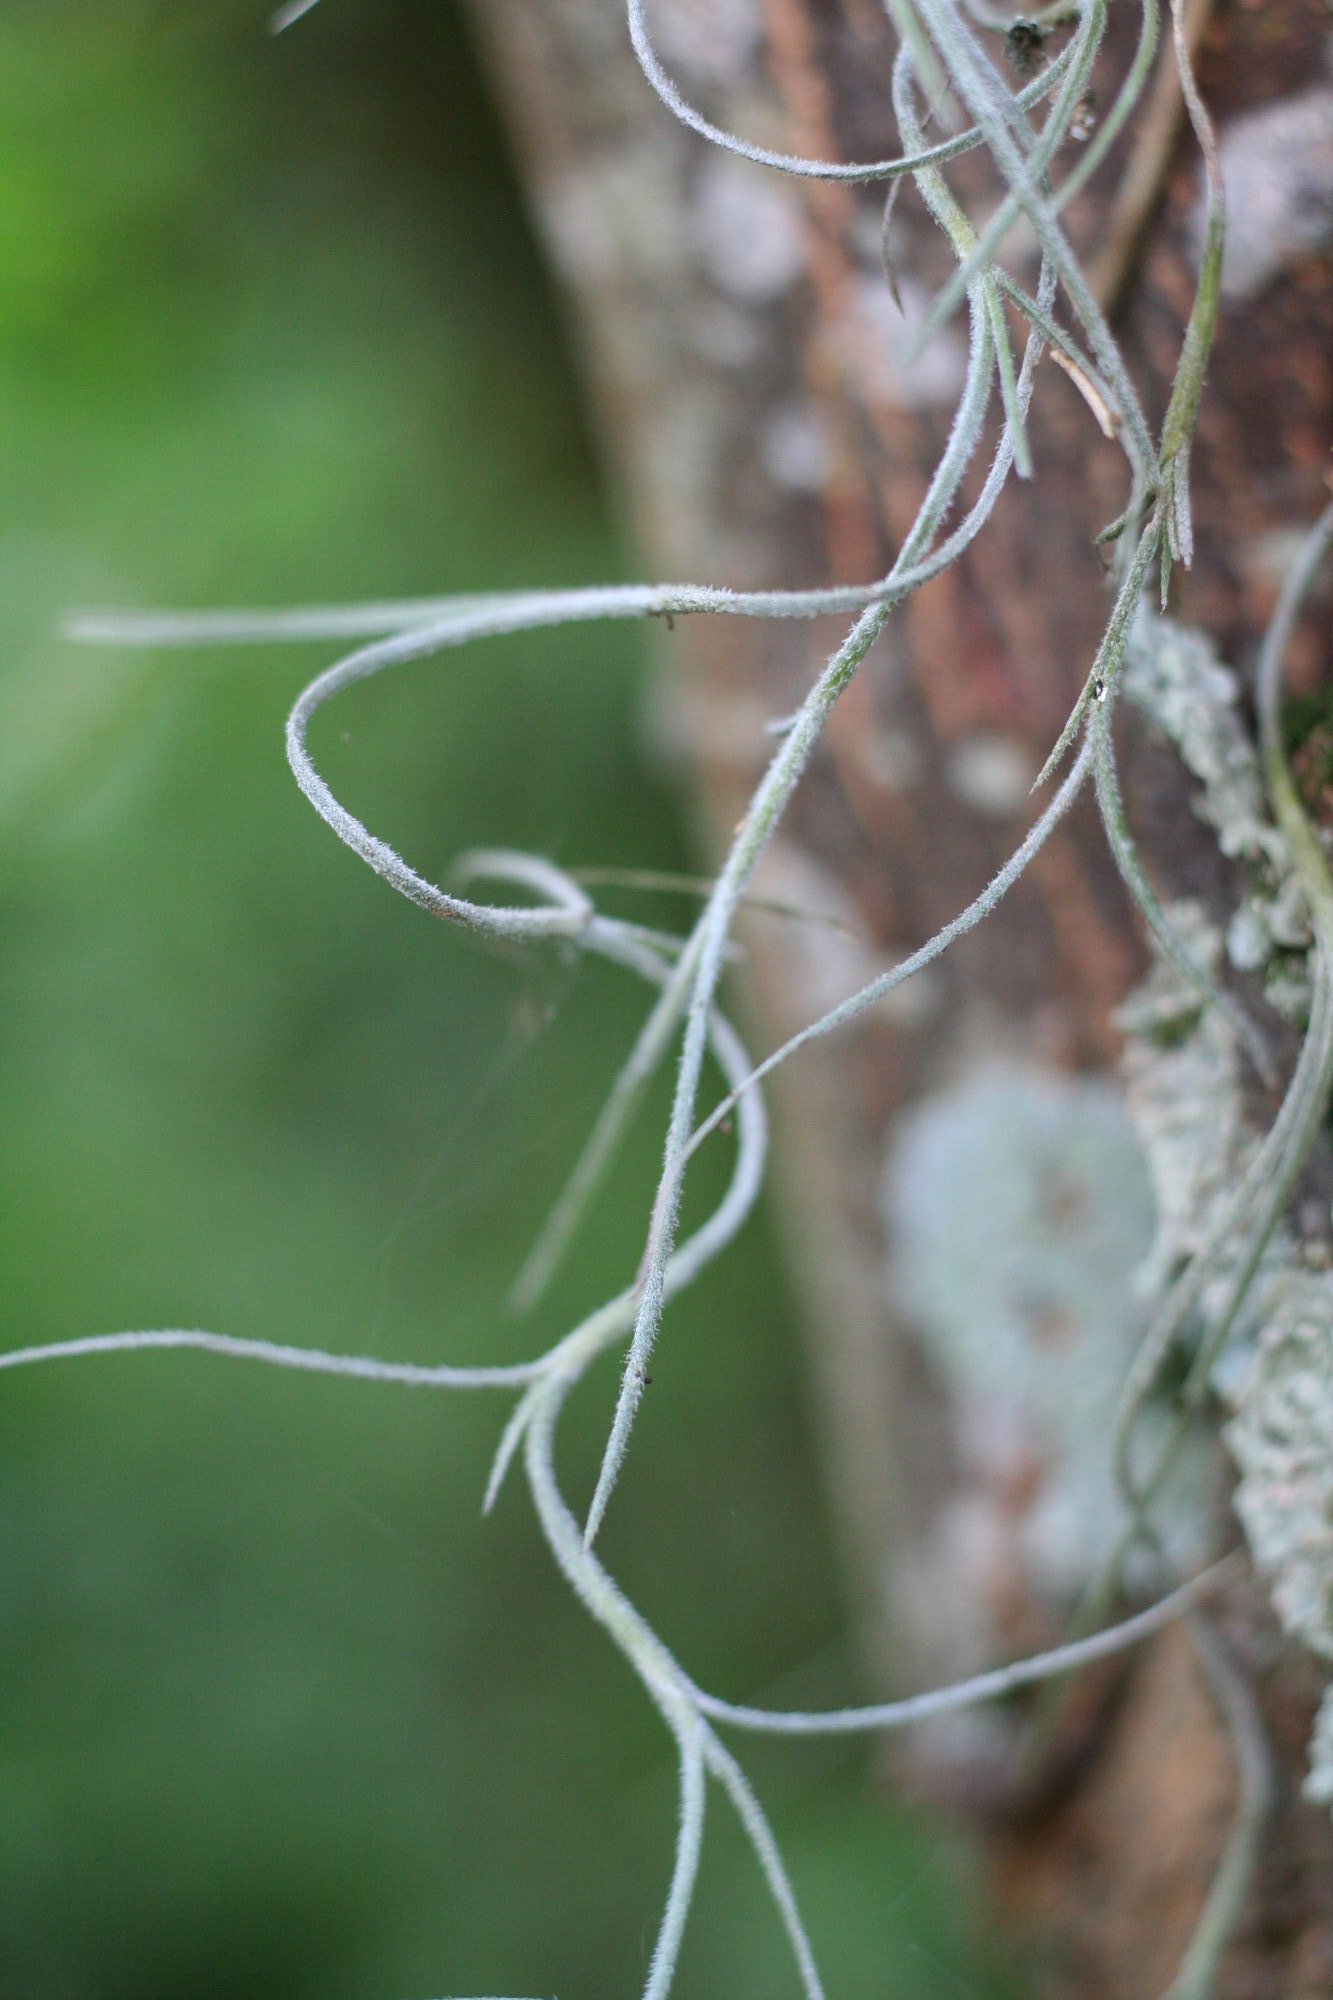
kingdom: Plantae
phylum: Tracheophyta
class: Liliopsida
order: Poales
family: Bromeliaceae
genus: Tillandsia
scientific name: Tillandsia usneoides
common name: Spanish moss
